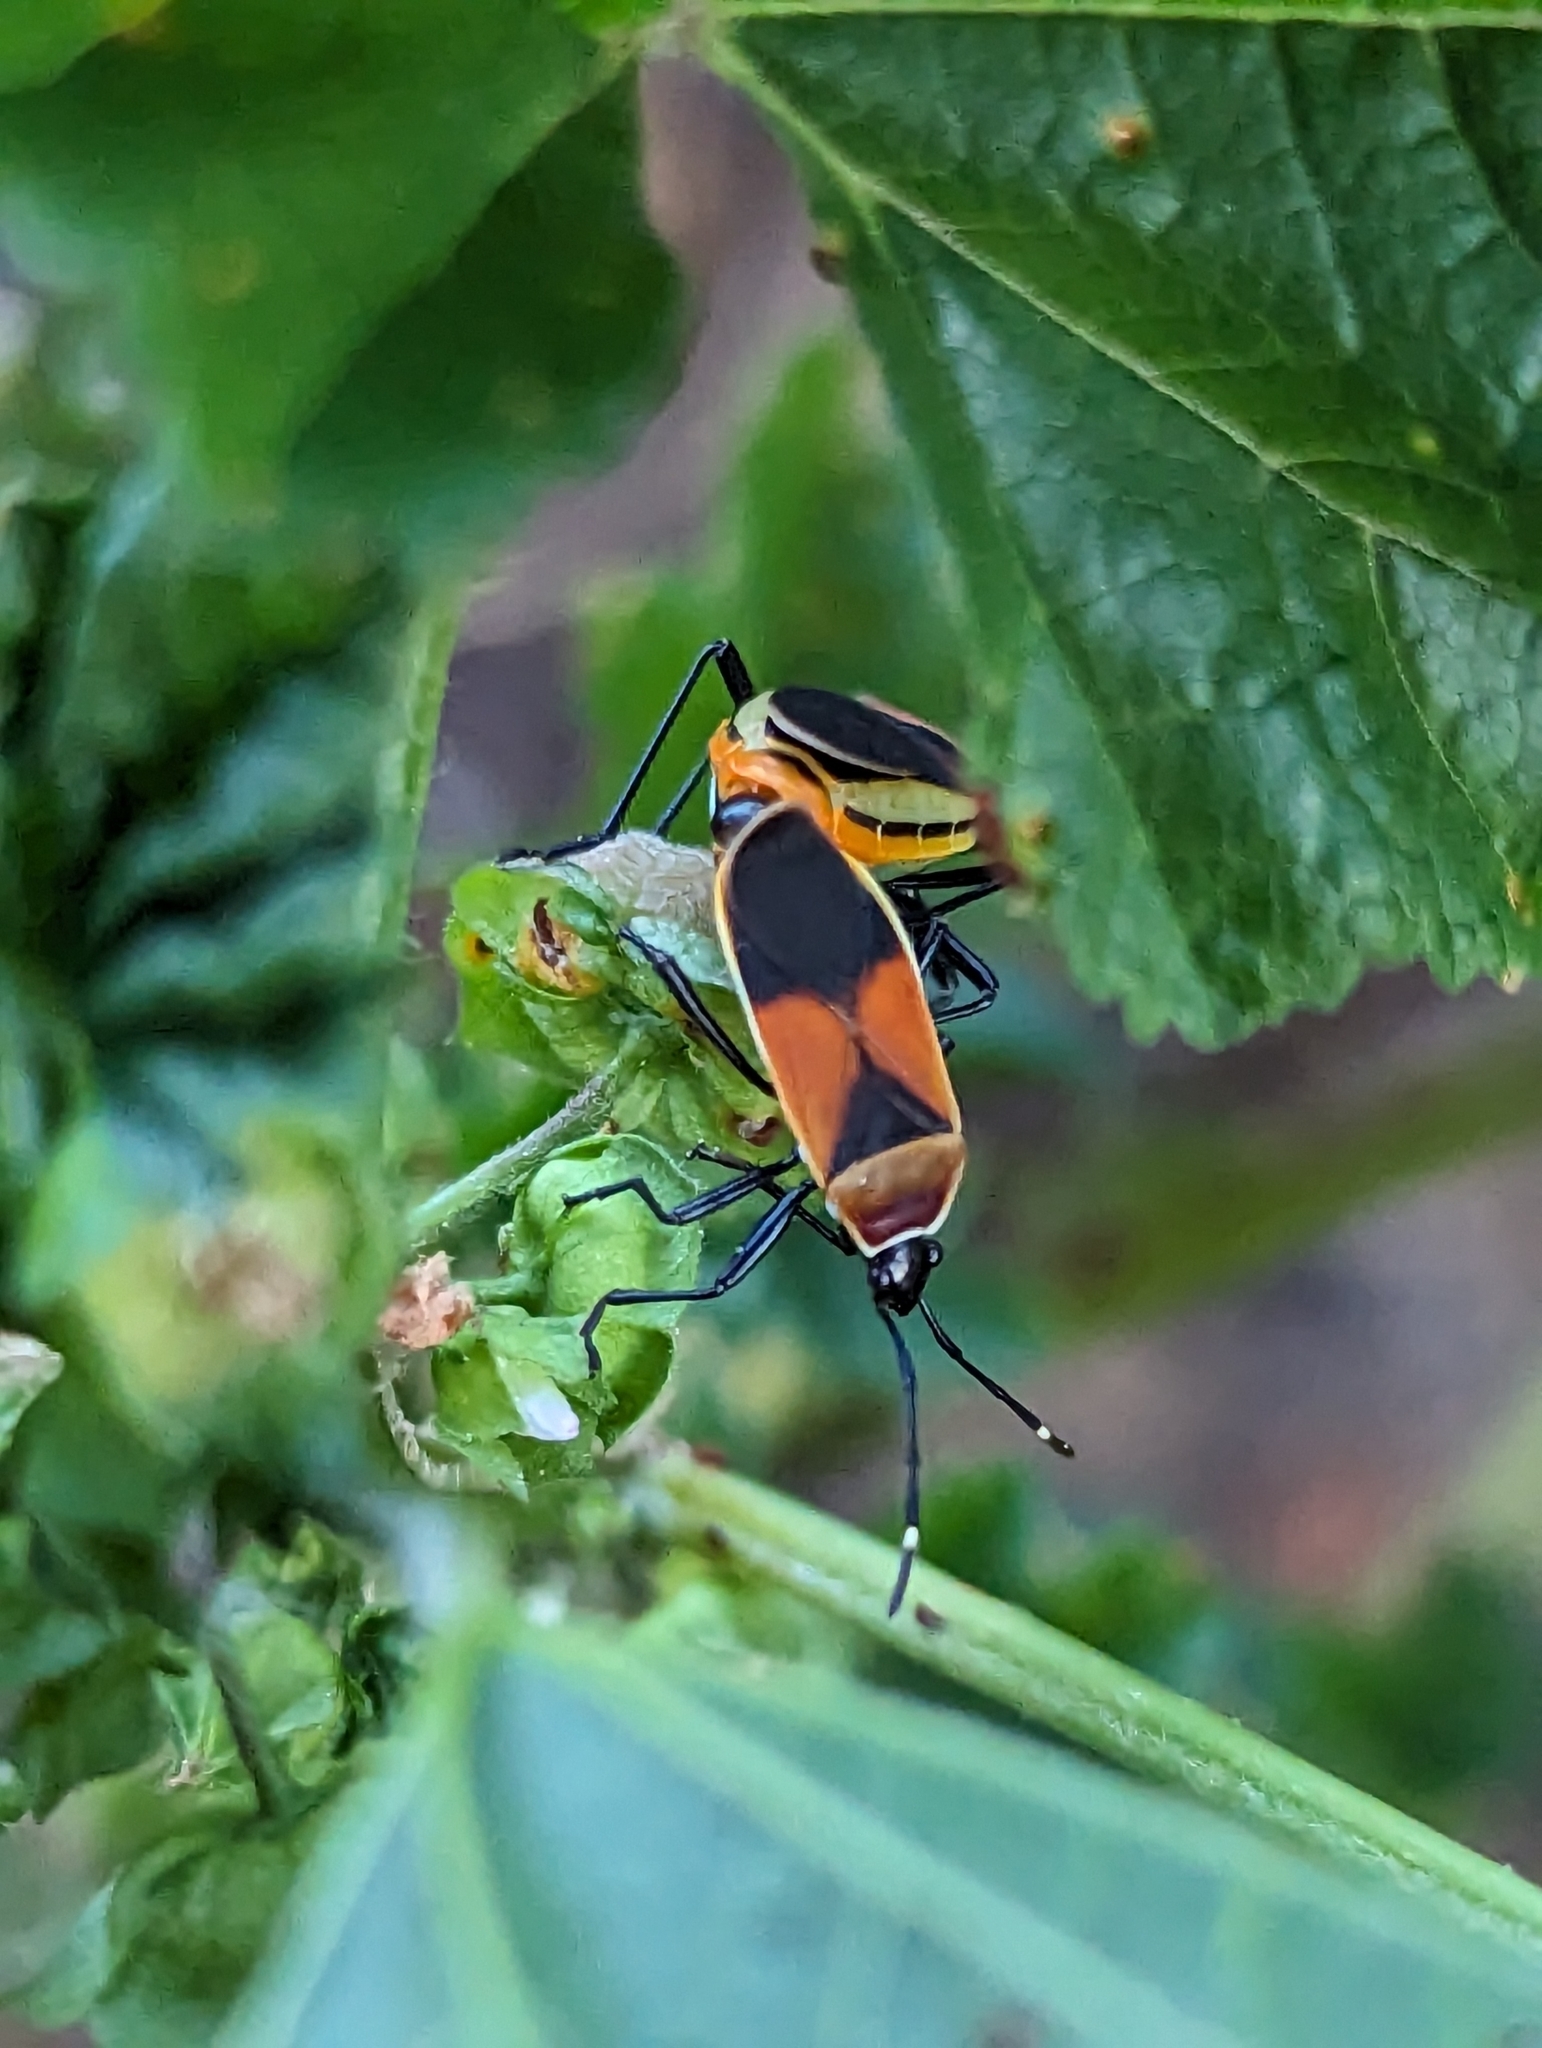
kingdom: Animalia
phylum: Arthropoda
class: Insecta
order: Hemiptera
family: Pyrrhocoridae
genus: Dindymus
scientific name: Dindymus
